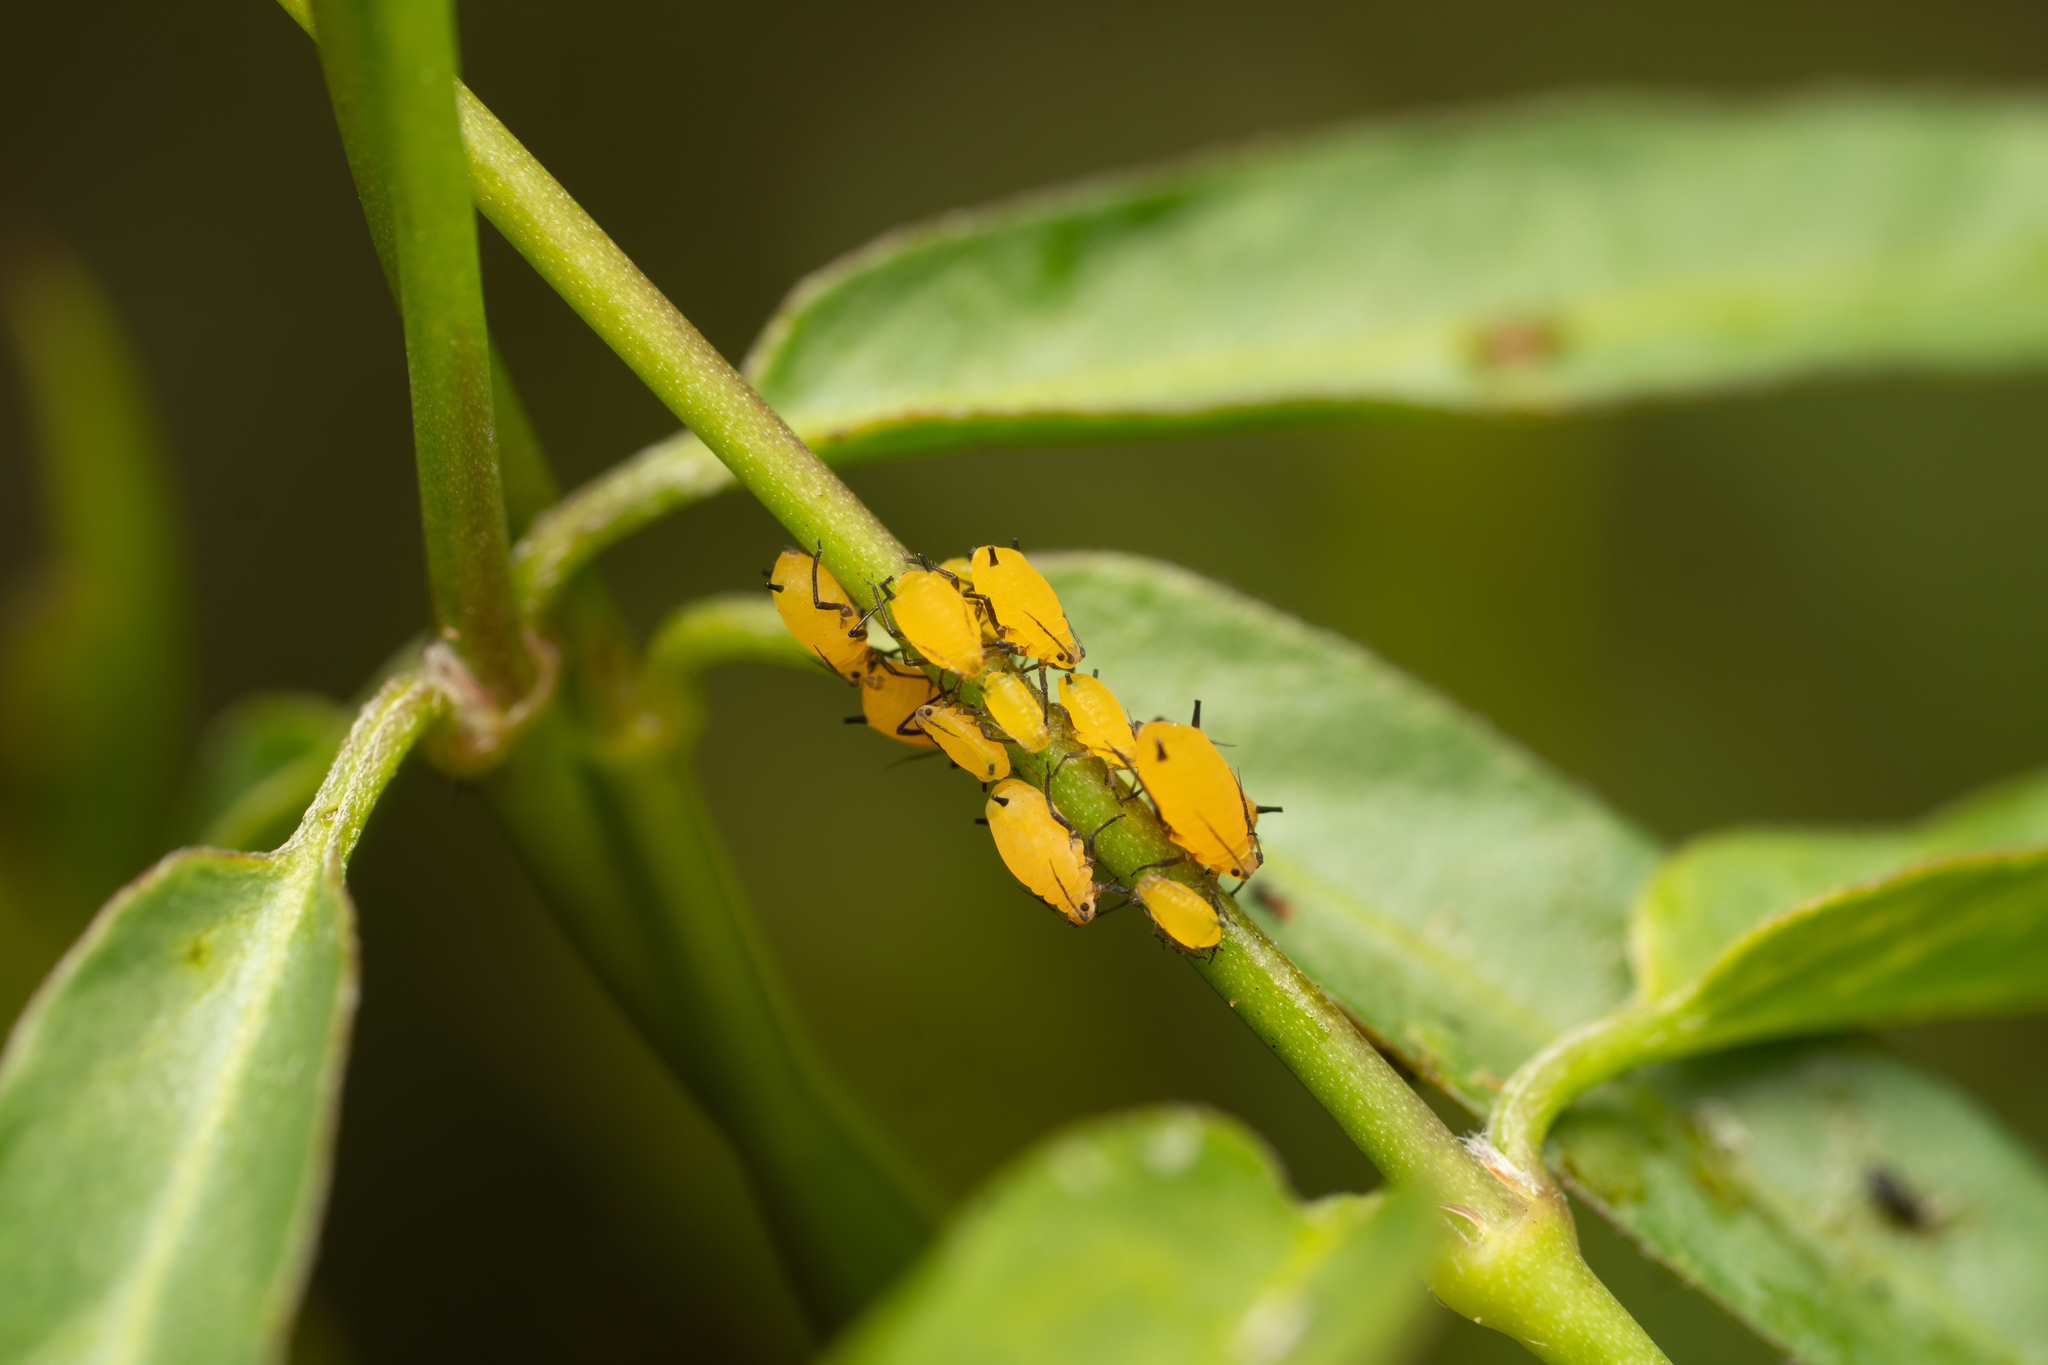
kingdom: Animalia
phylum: Arthropoda
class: Insecta
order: Hemiptera
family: Aphididae
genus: Aphis
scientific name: Aphis nerii
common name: Oleander aphid
